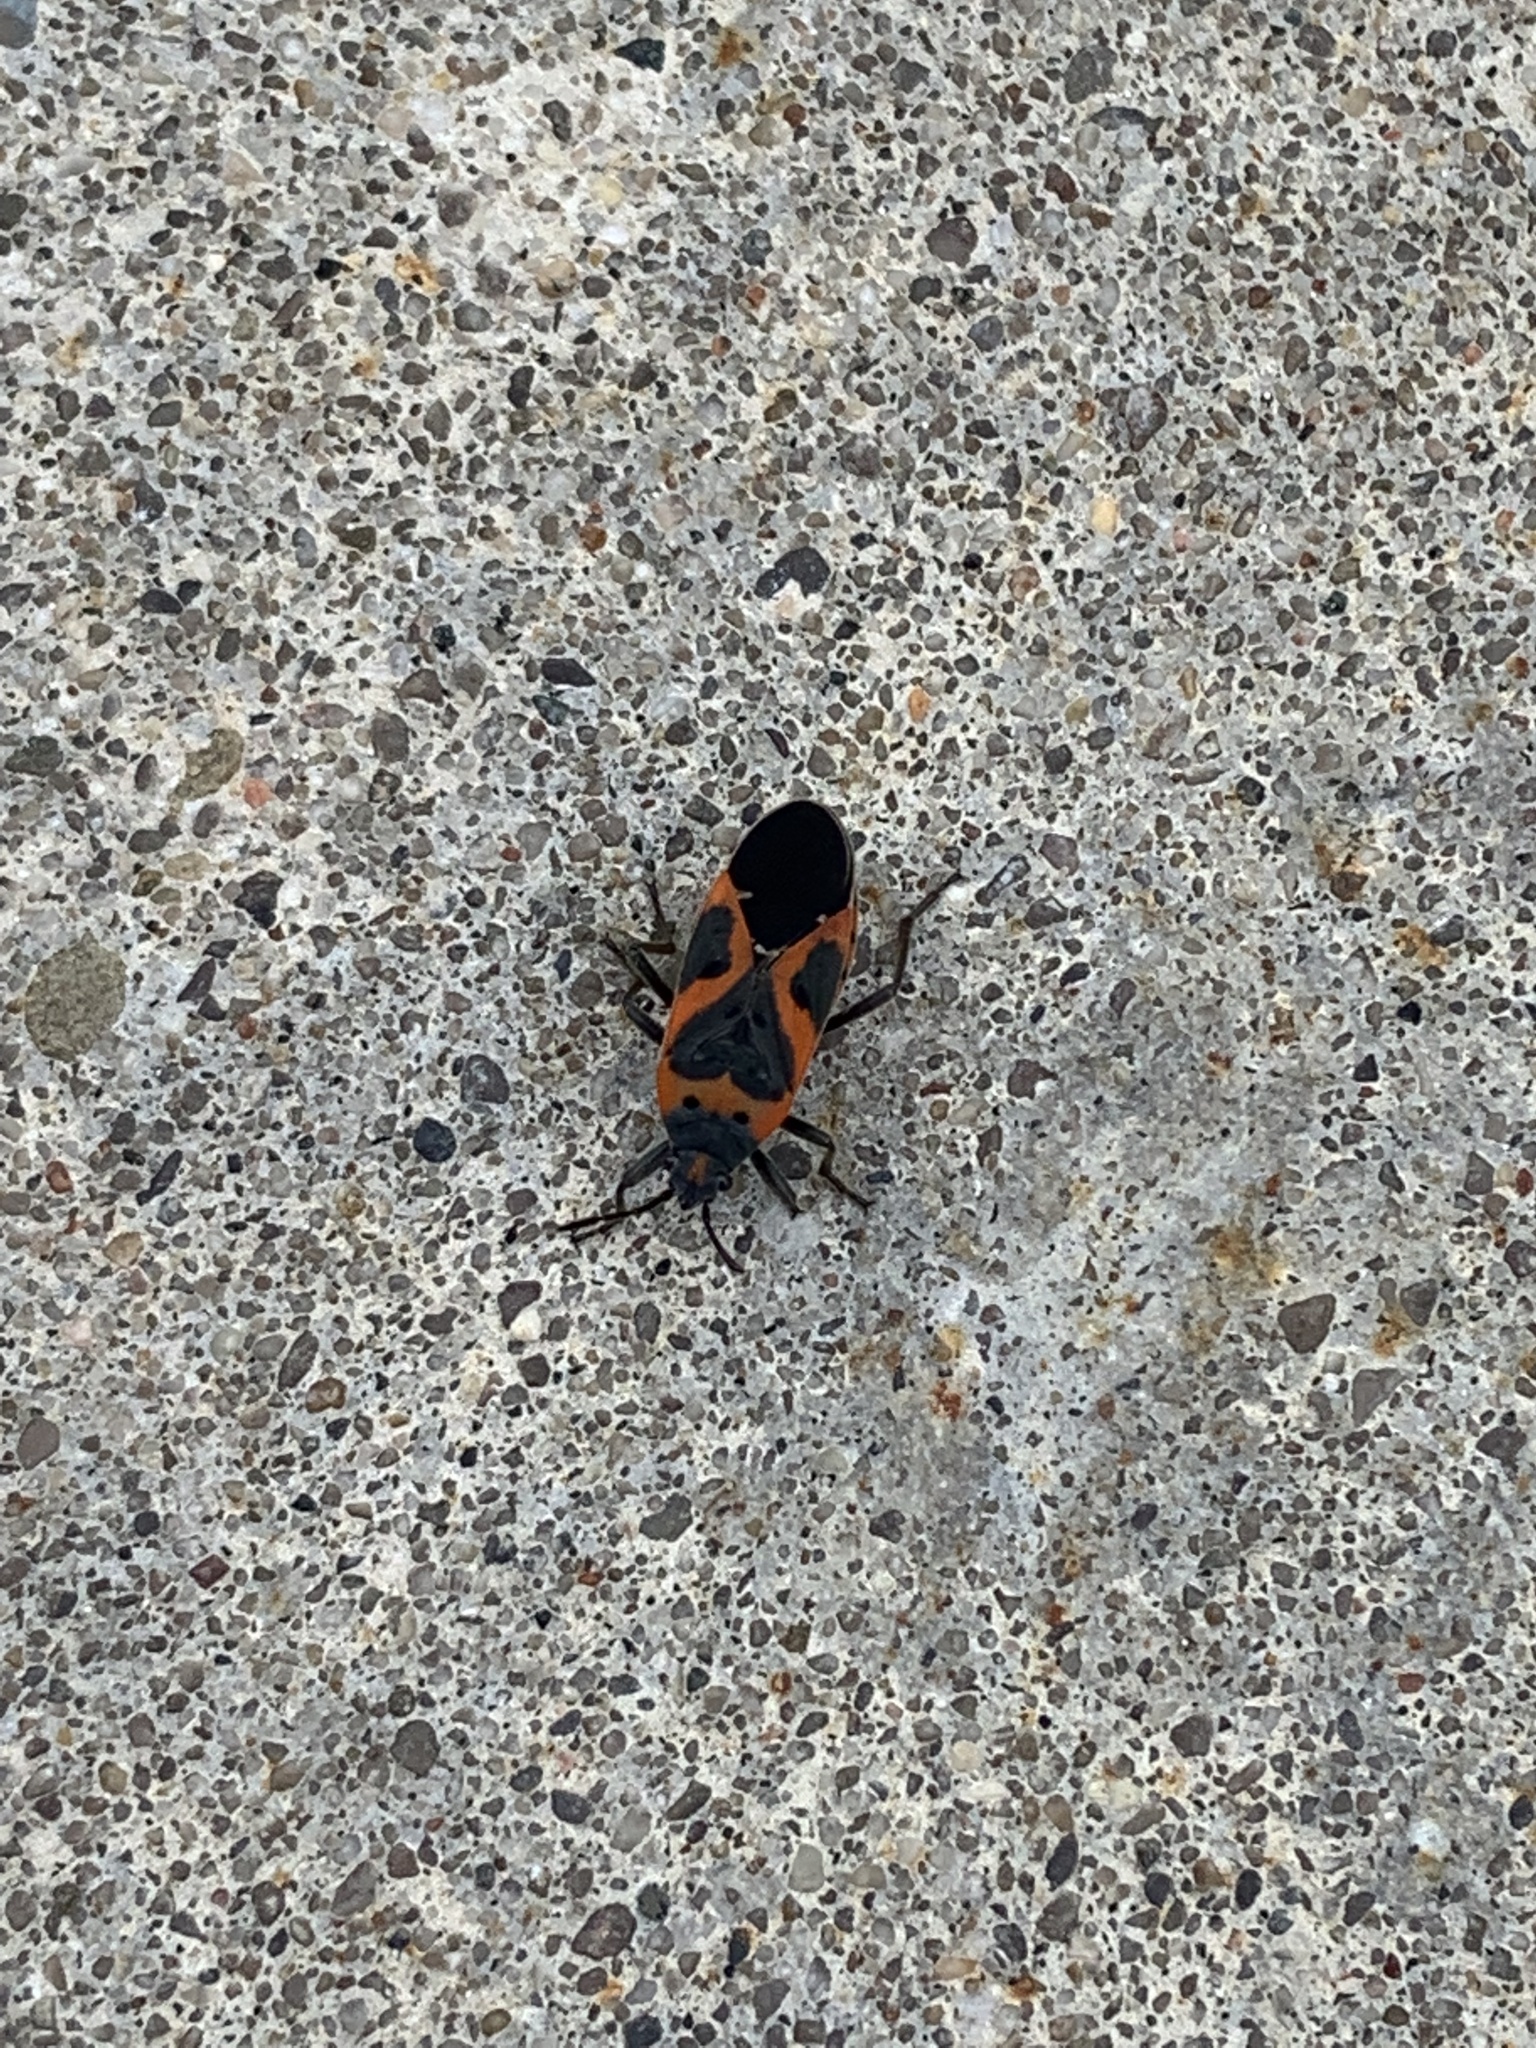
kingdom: Animalia
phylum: Arthropoda
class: Insecta
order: Hemiptera
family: Lygaeidae
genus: Lygaeus
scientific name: Lygaeus kalmii
